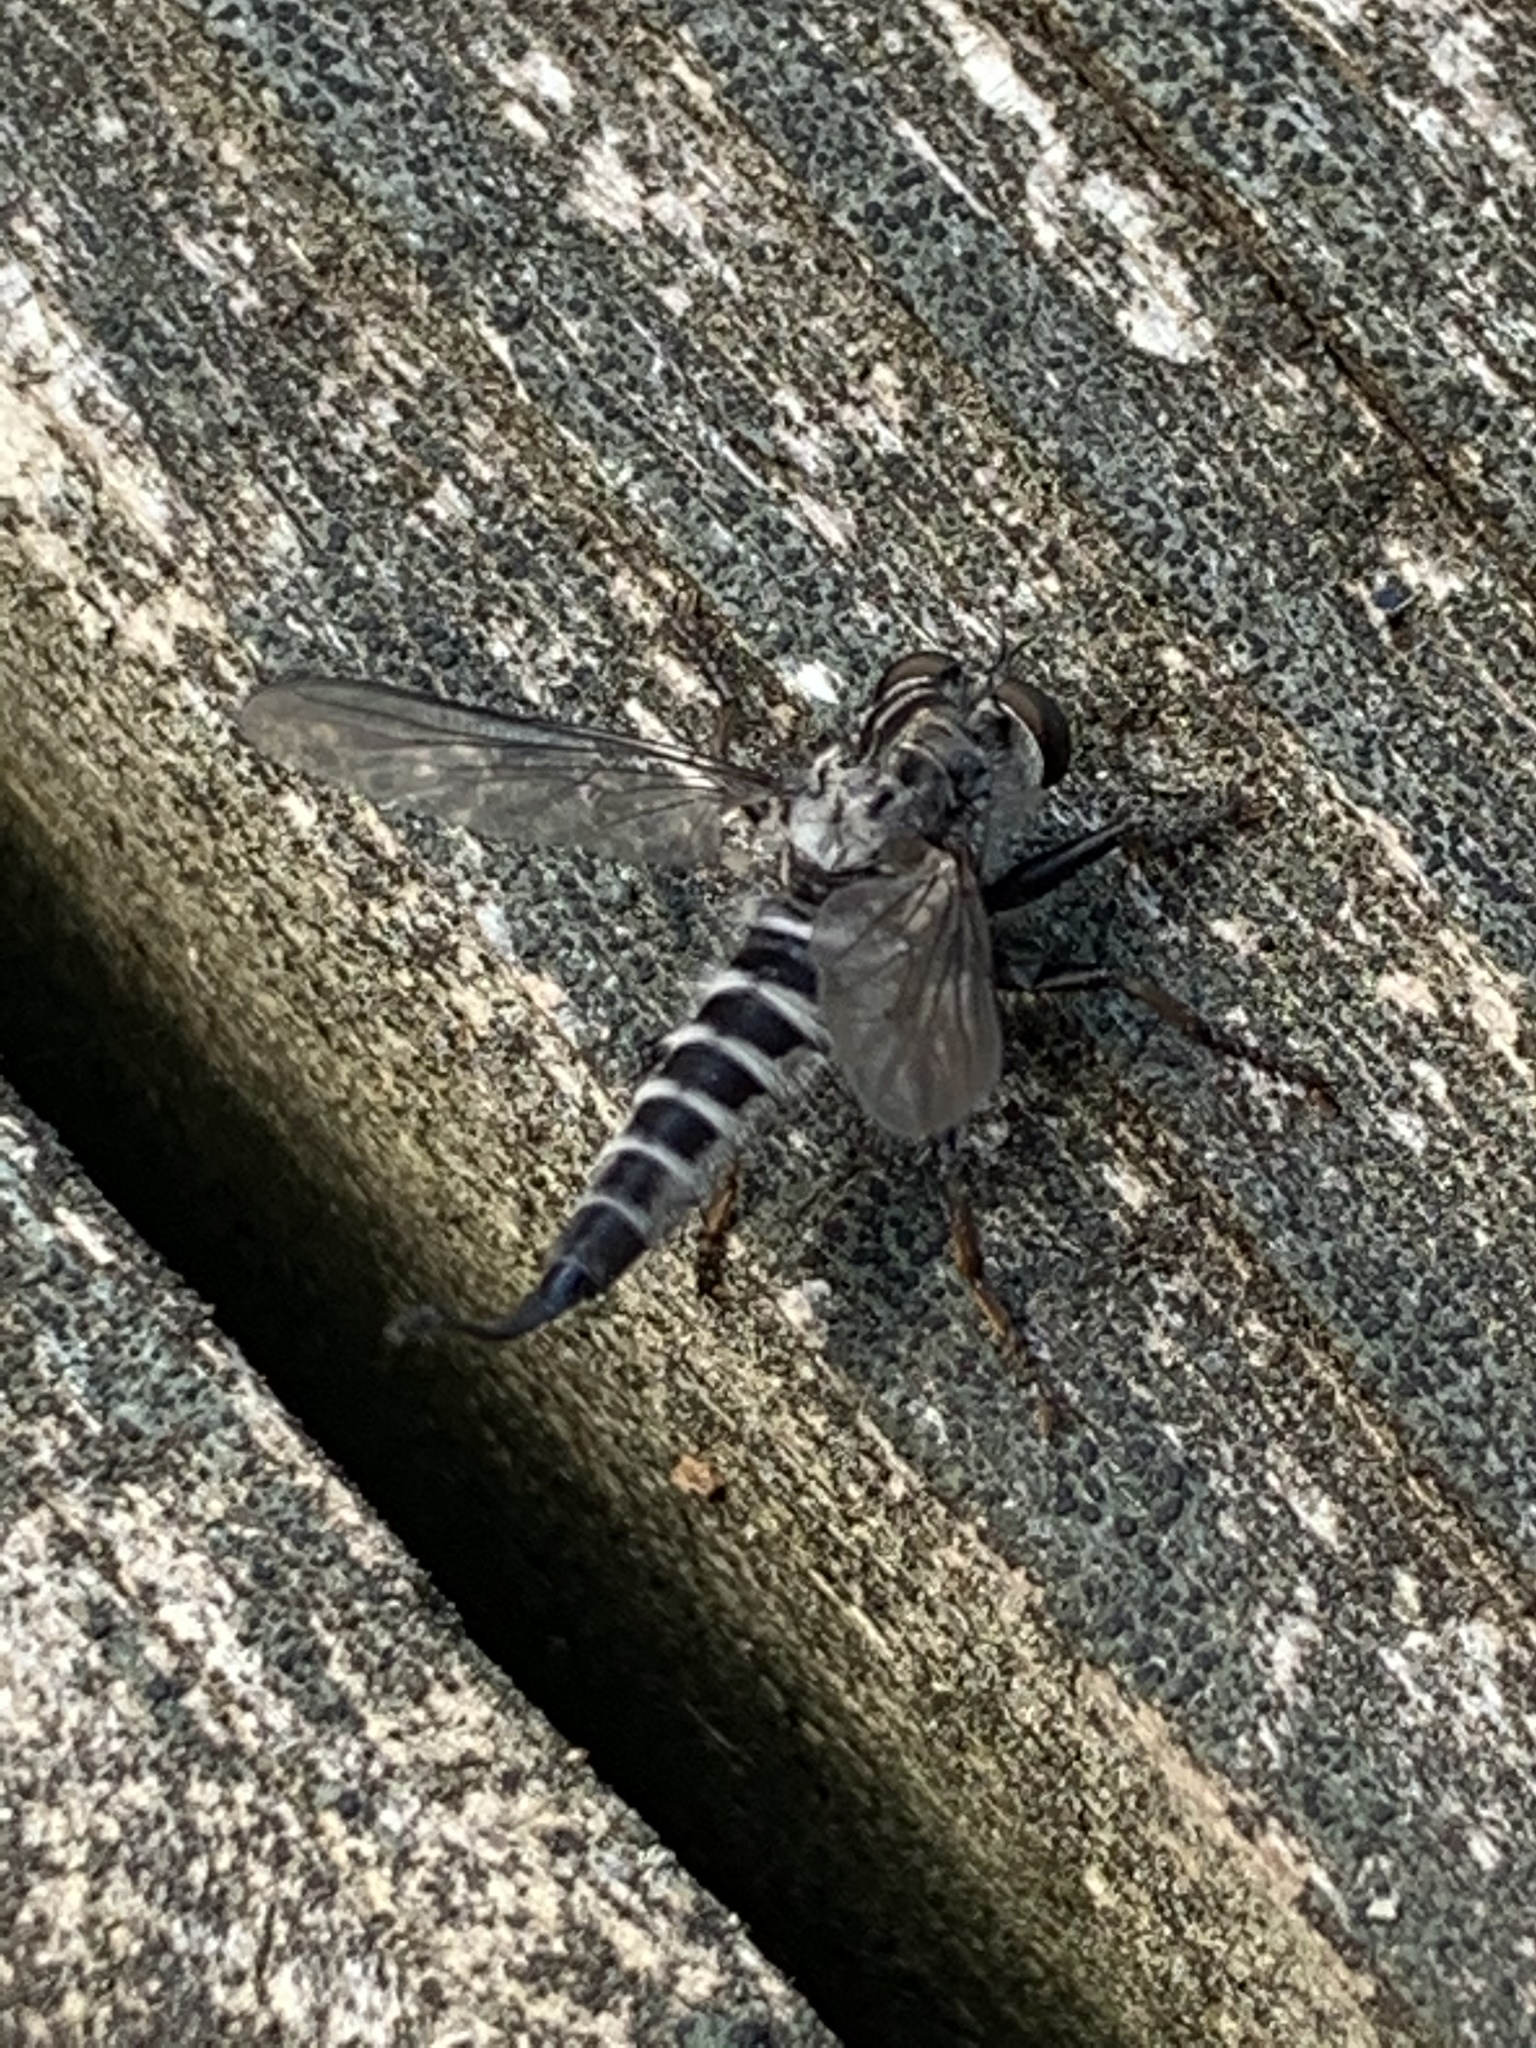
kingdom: Animalia
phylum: Arthropoda
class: Insecta
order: Diptera
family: Asilidae
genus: Efferia
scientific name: Efferia aestuans
